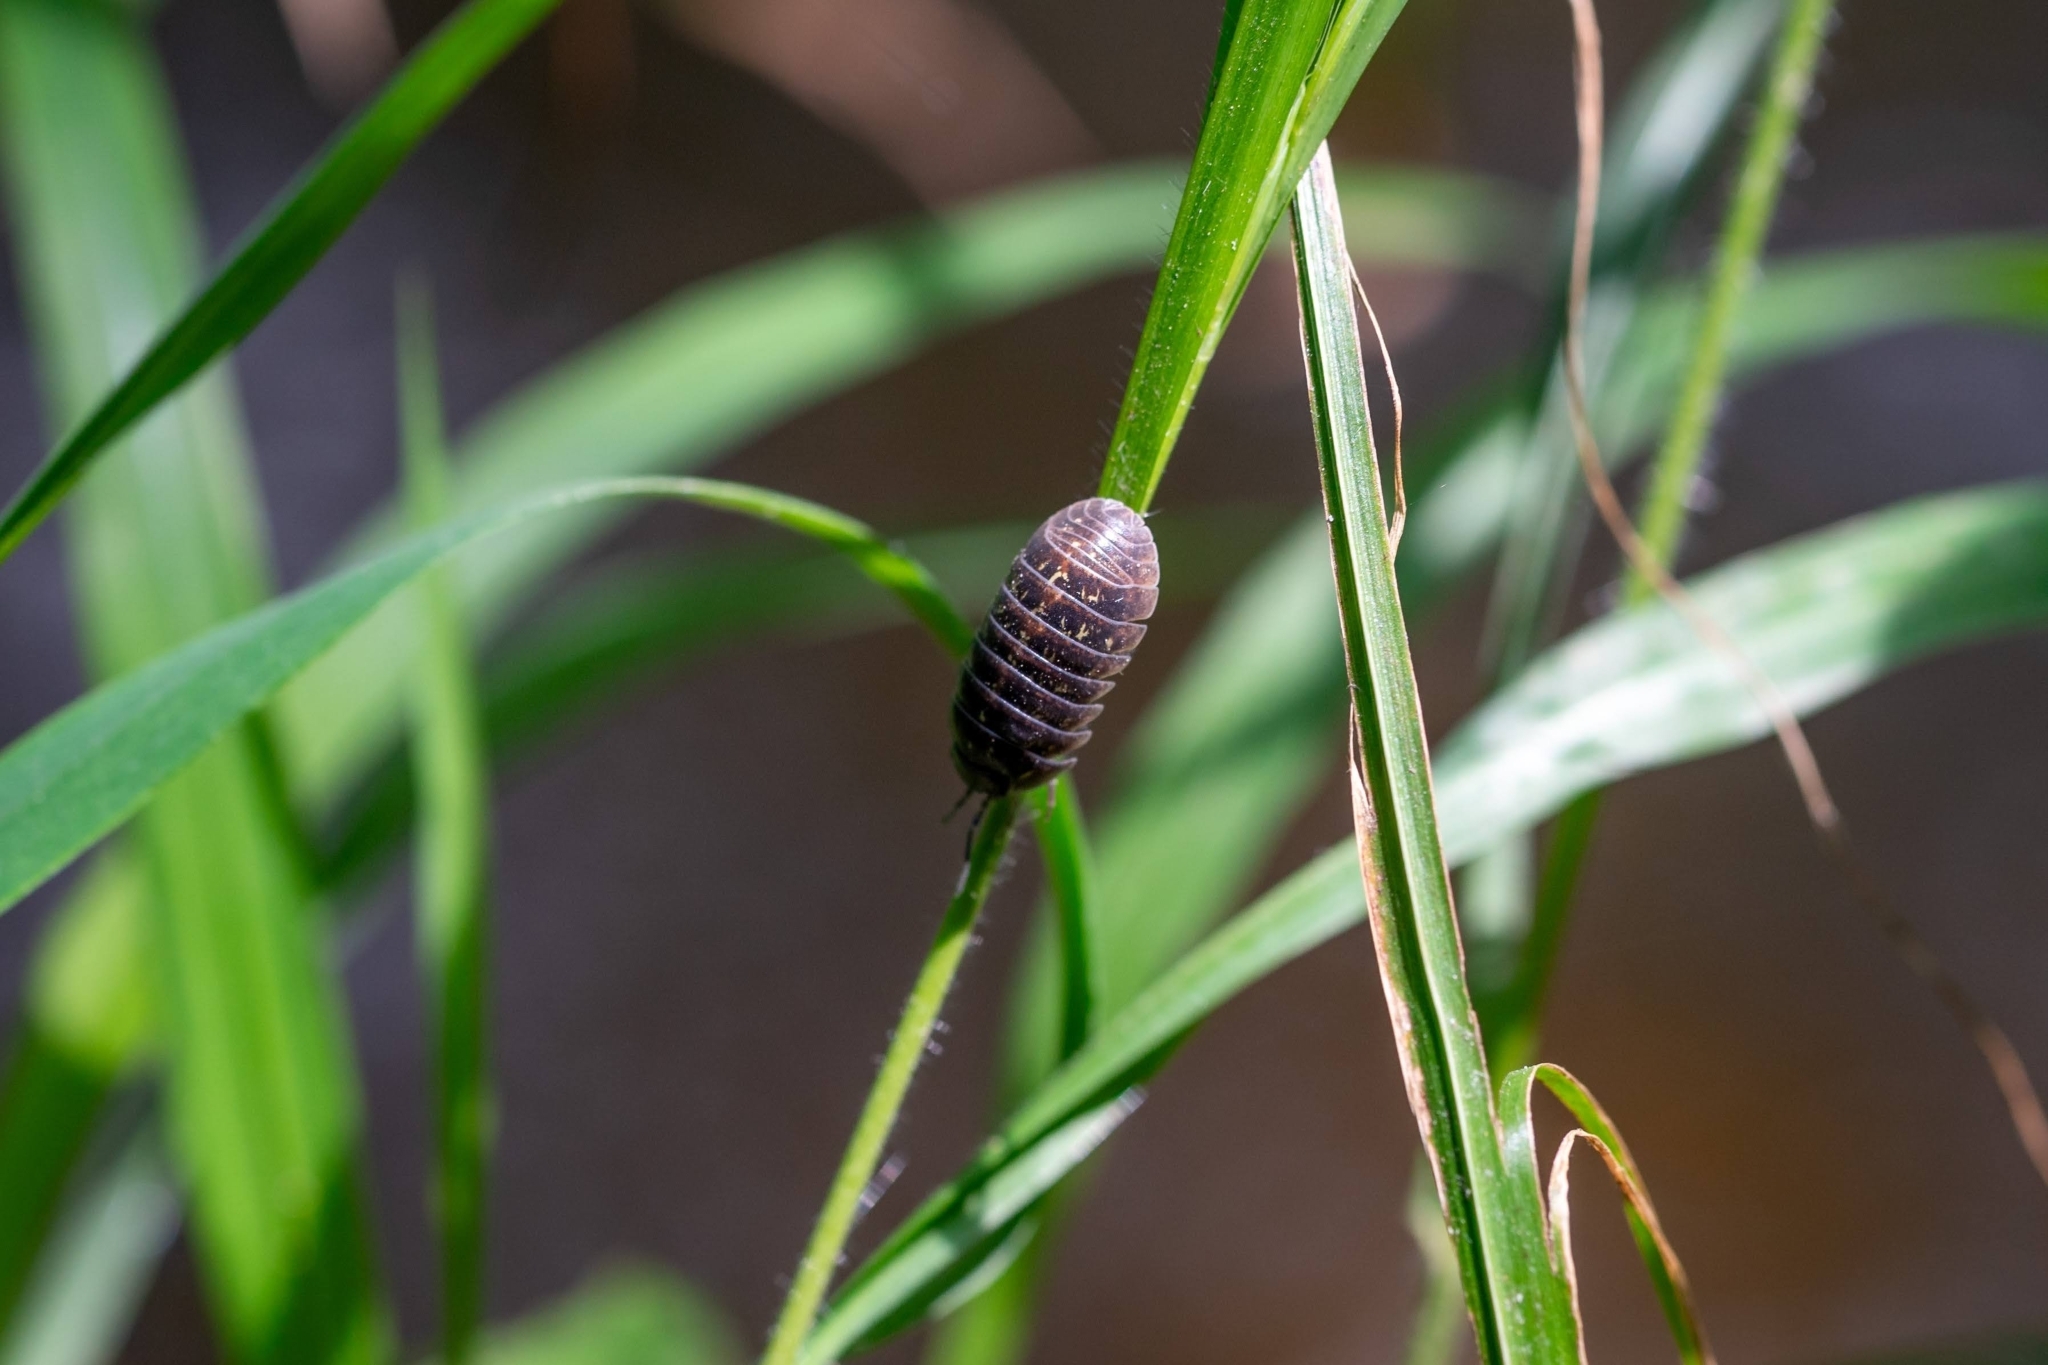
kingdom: Animalia
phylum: Arthropoda
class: Malacostraca
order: Isopoda
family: Armadillidiidae
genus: Armadillidium
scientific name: Armadillidium vulgare
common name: Common pill woodlouse
